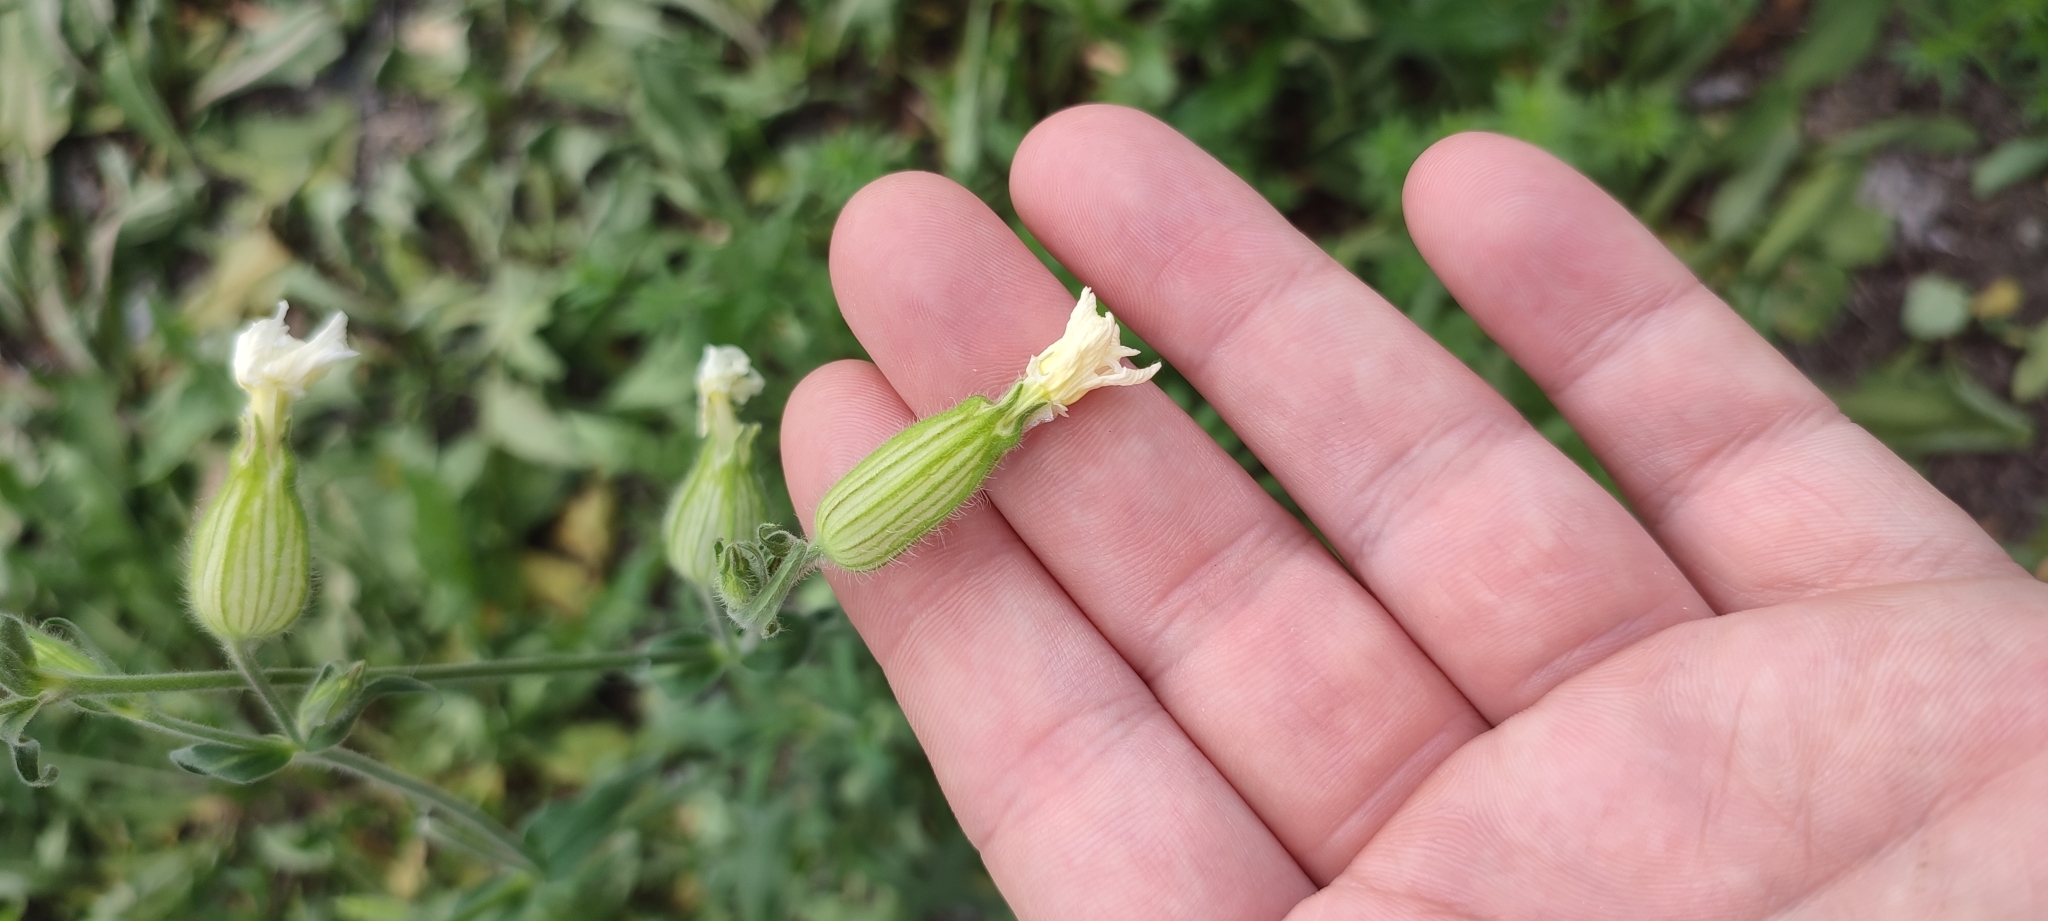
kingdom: Plantae
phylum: Tracheophyta
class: Magnoliopsida
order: Caryophyllales
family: Caryophyllaceae
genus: Silene
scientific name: Silene latifolia
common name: White campion
